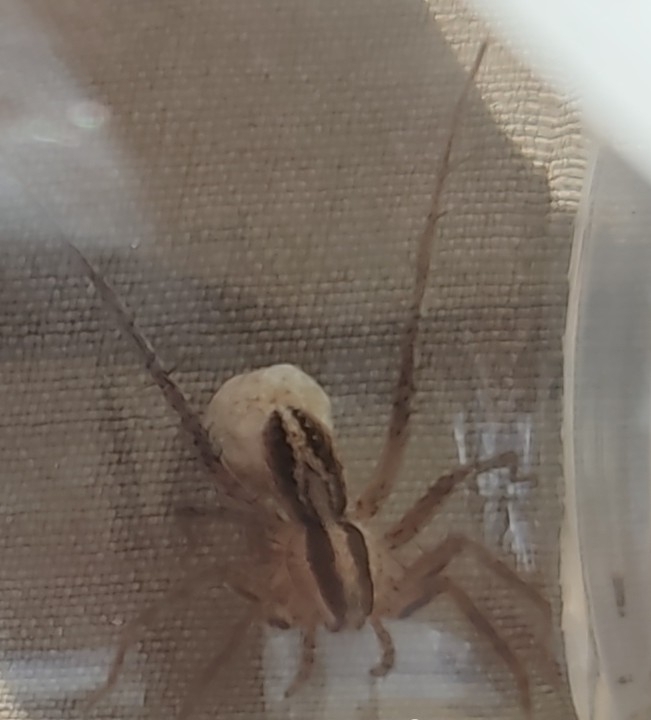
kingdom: Animalia
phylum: Arthropoda
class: Arachnida
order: Araneae
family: Lycosidae
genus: Pardosa
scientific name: Pardosa bifasciata
